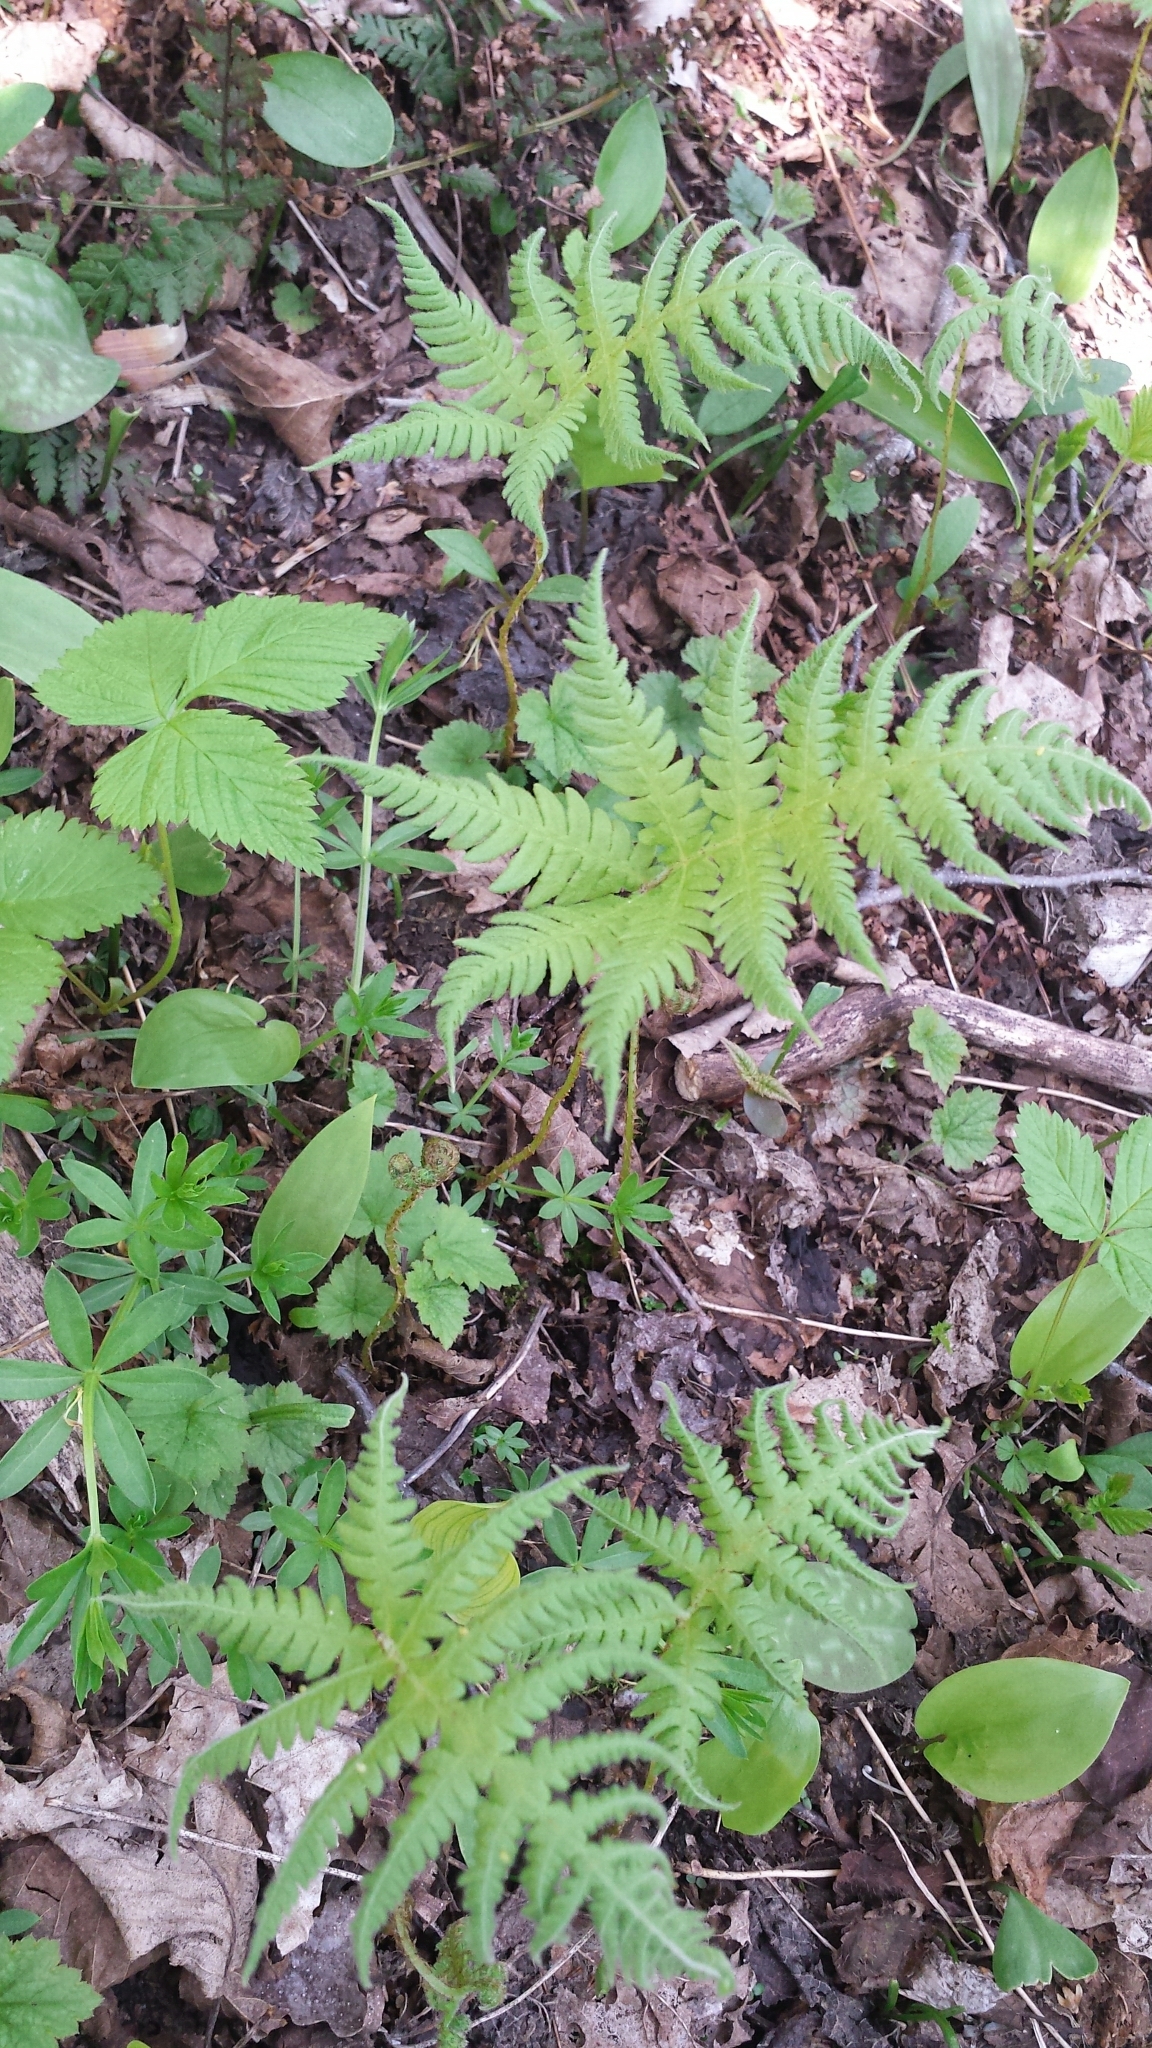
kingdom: Plantae
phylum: Tracheophyta
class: Polypodiopsida
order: Polypodiales
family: Thelypteridaceae
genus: Phegopteris
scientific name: Phegopteris connectilis
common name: Beech fern
